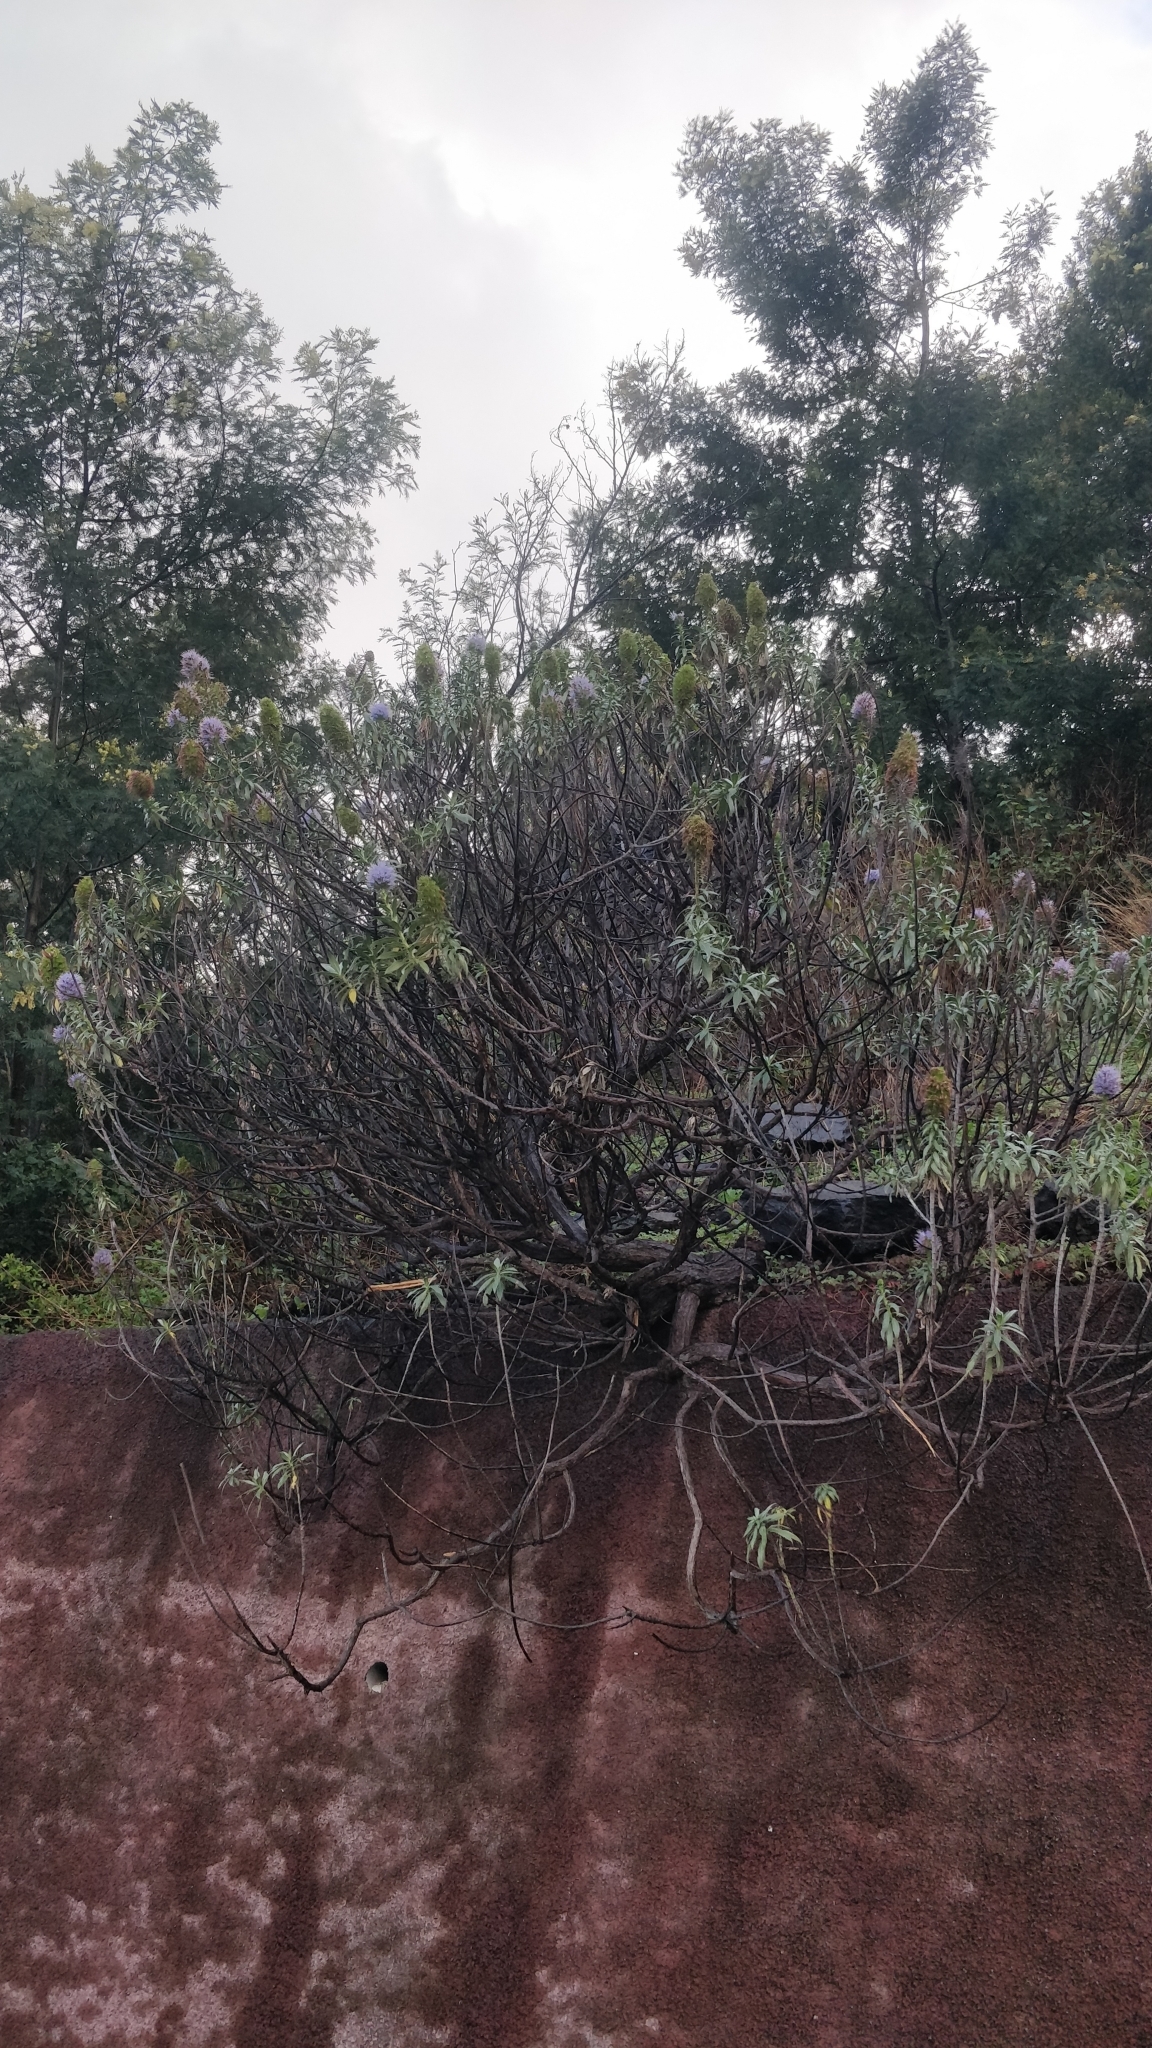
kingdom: Plantae
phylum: Tracheophyta
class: Magnoliopsida
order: Boraginales
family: Boraginaceae
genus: Echium
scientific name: Echium nervosum
